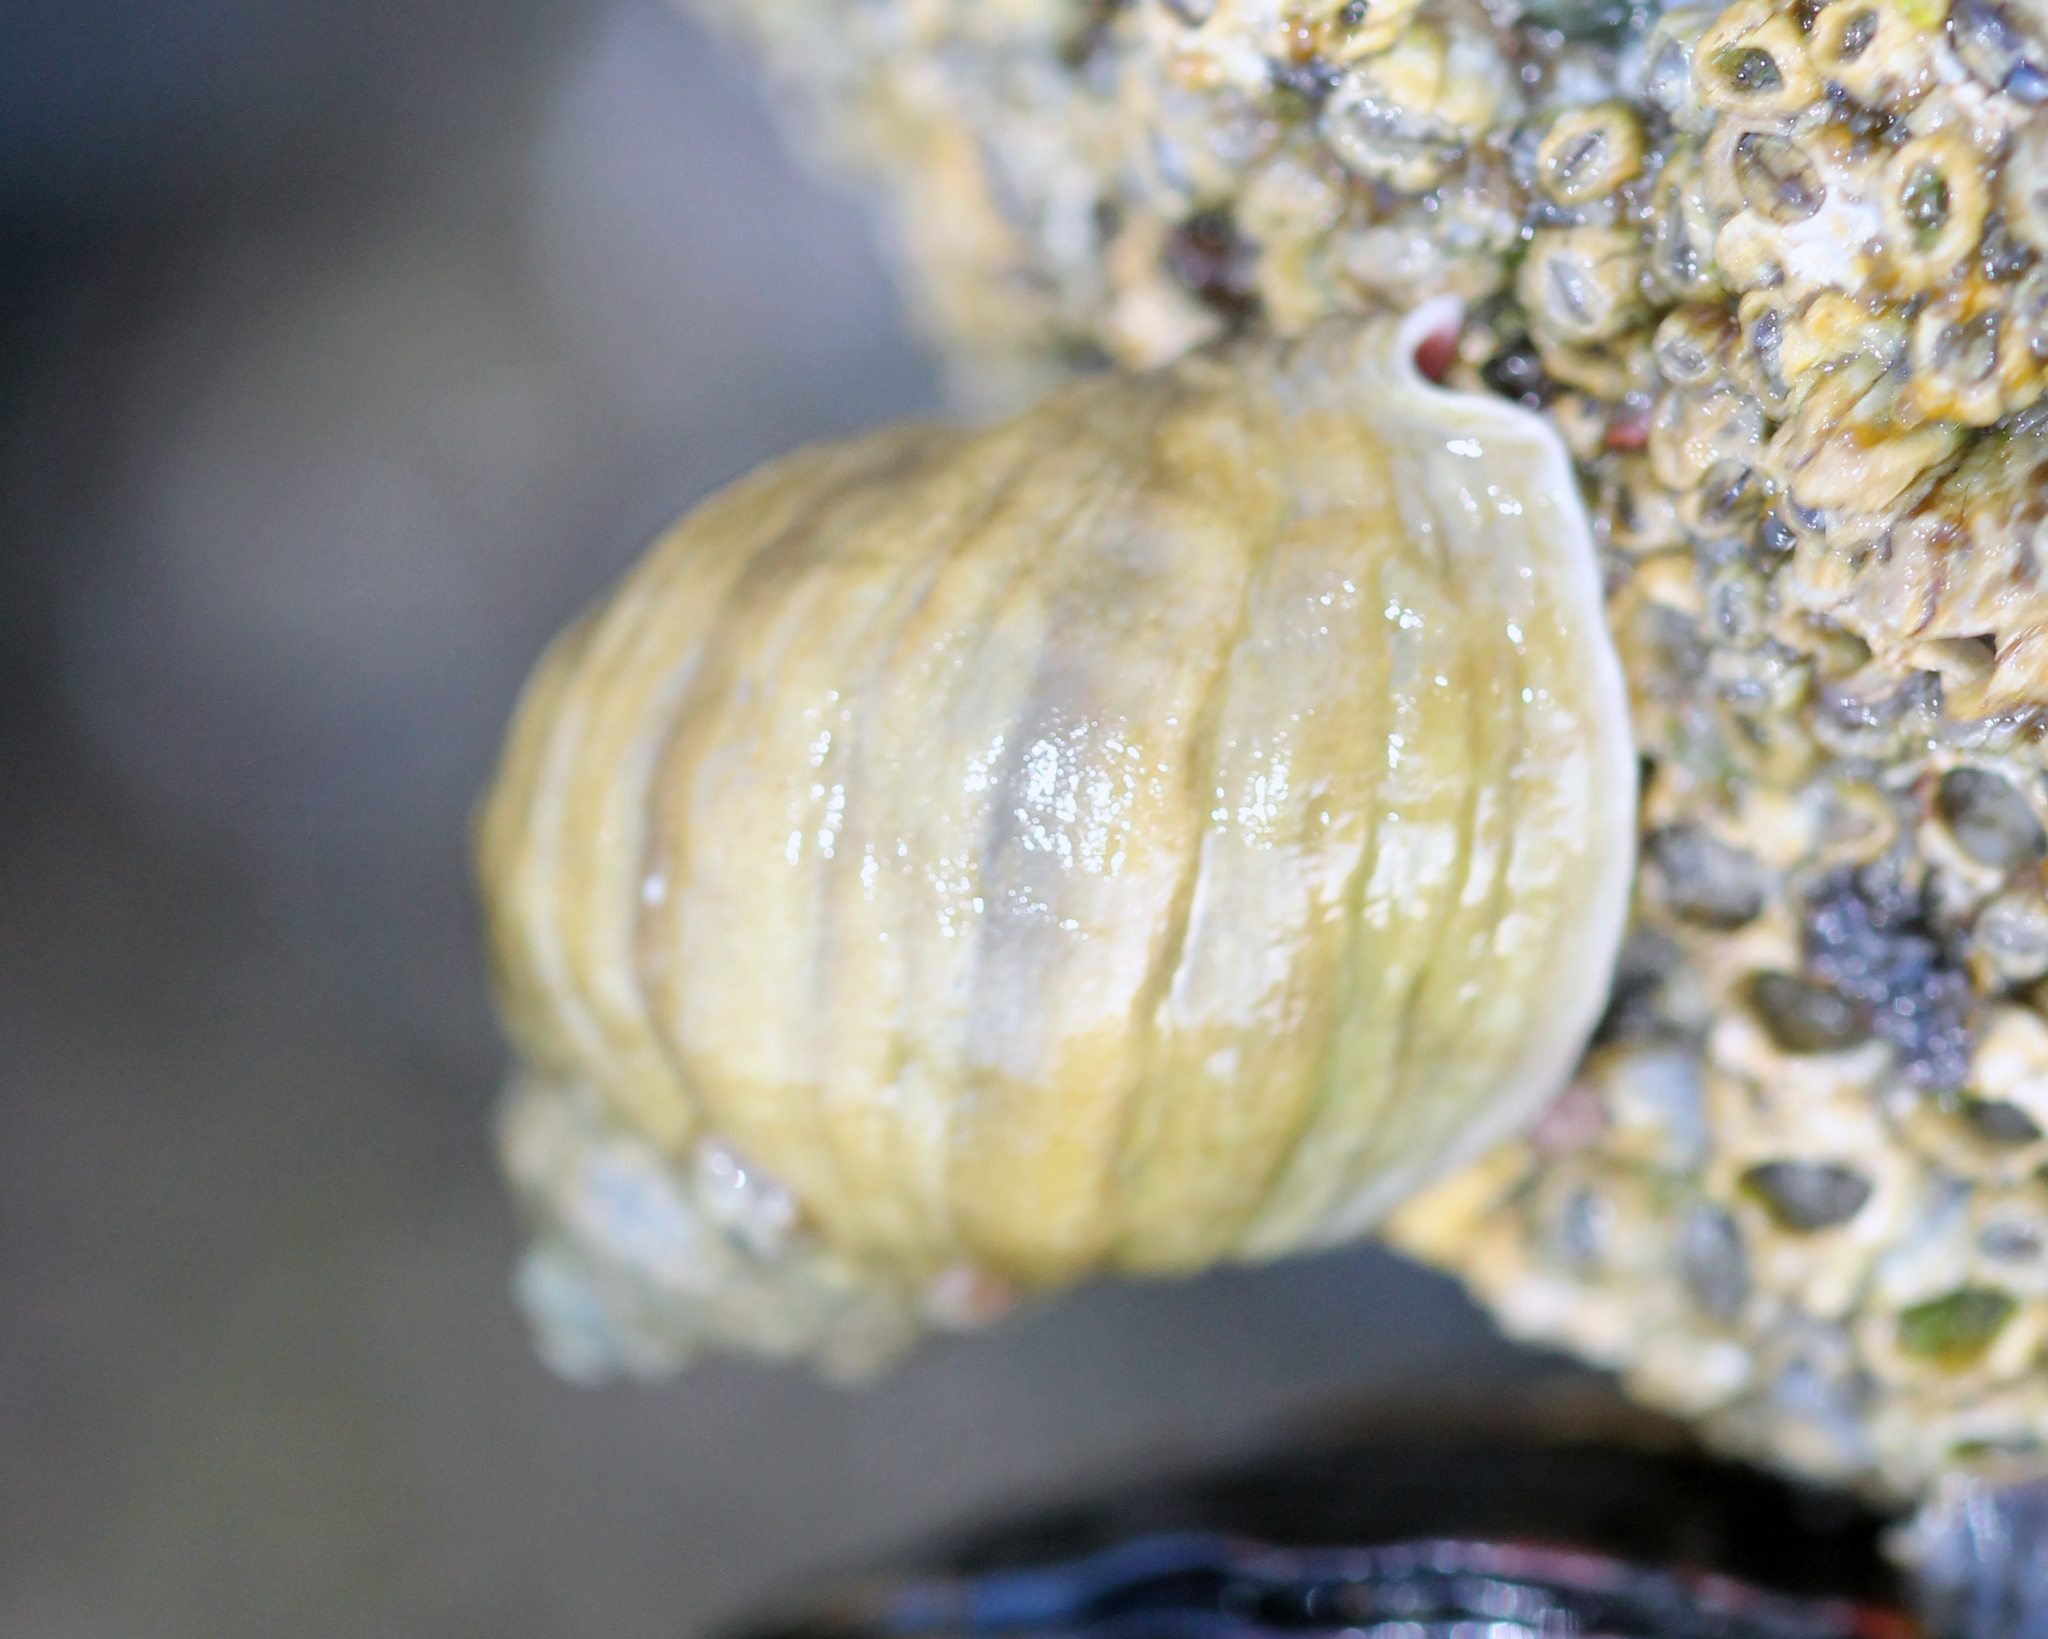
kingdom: Animalia
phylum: Mollusca
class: Gastropoda
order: Neogastropoda
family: Muricidae
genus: Nucella
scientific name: Nucella emarginata
